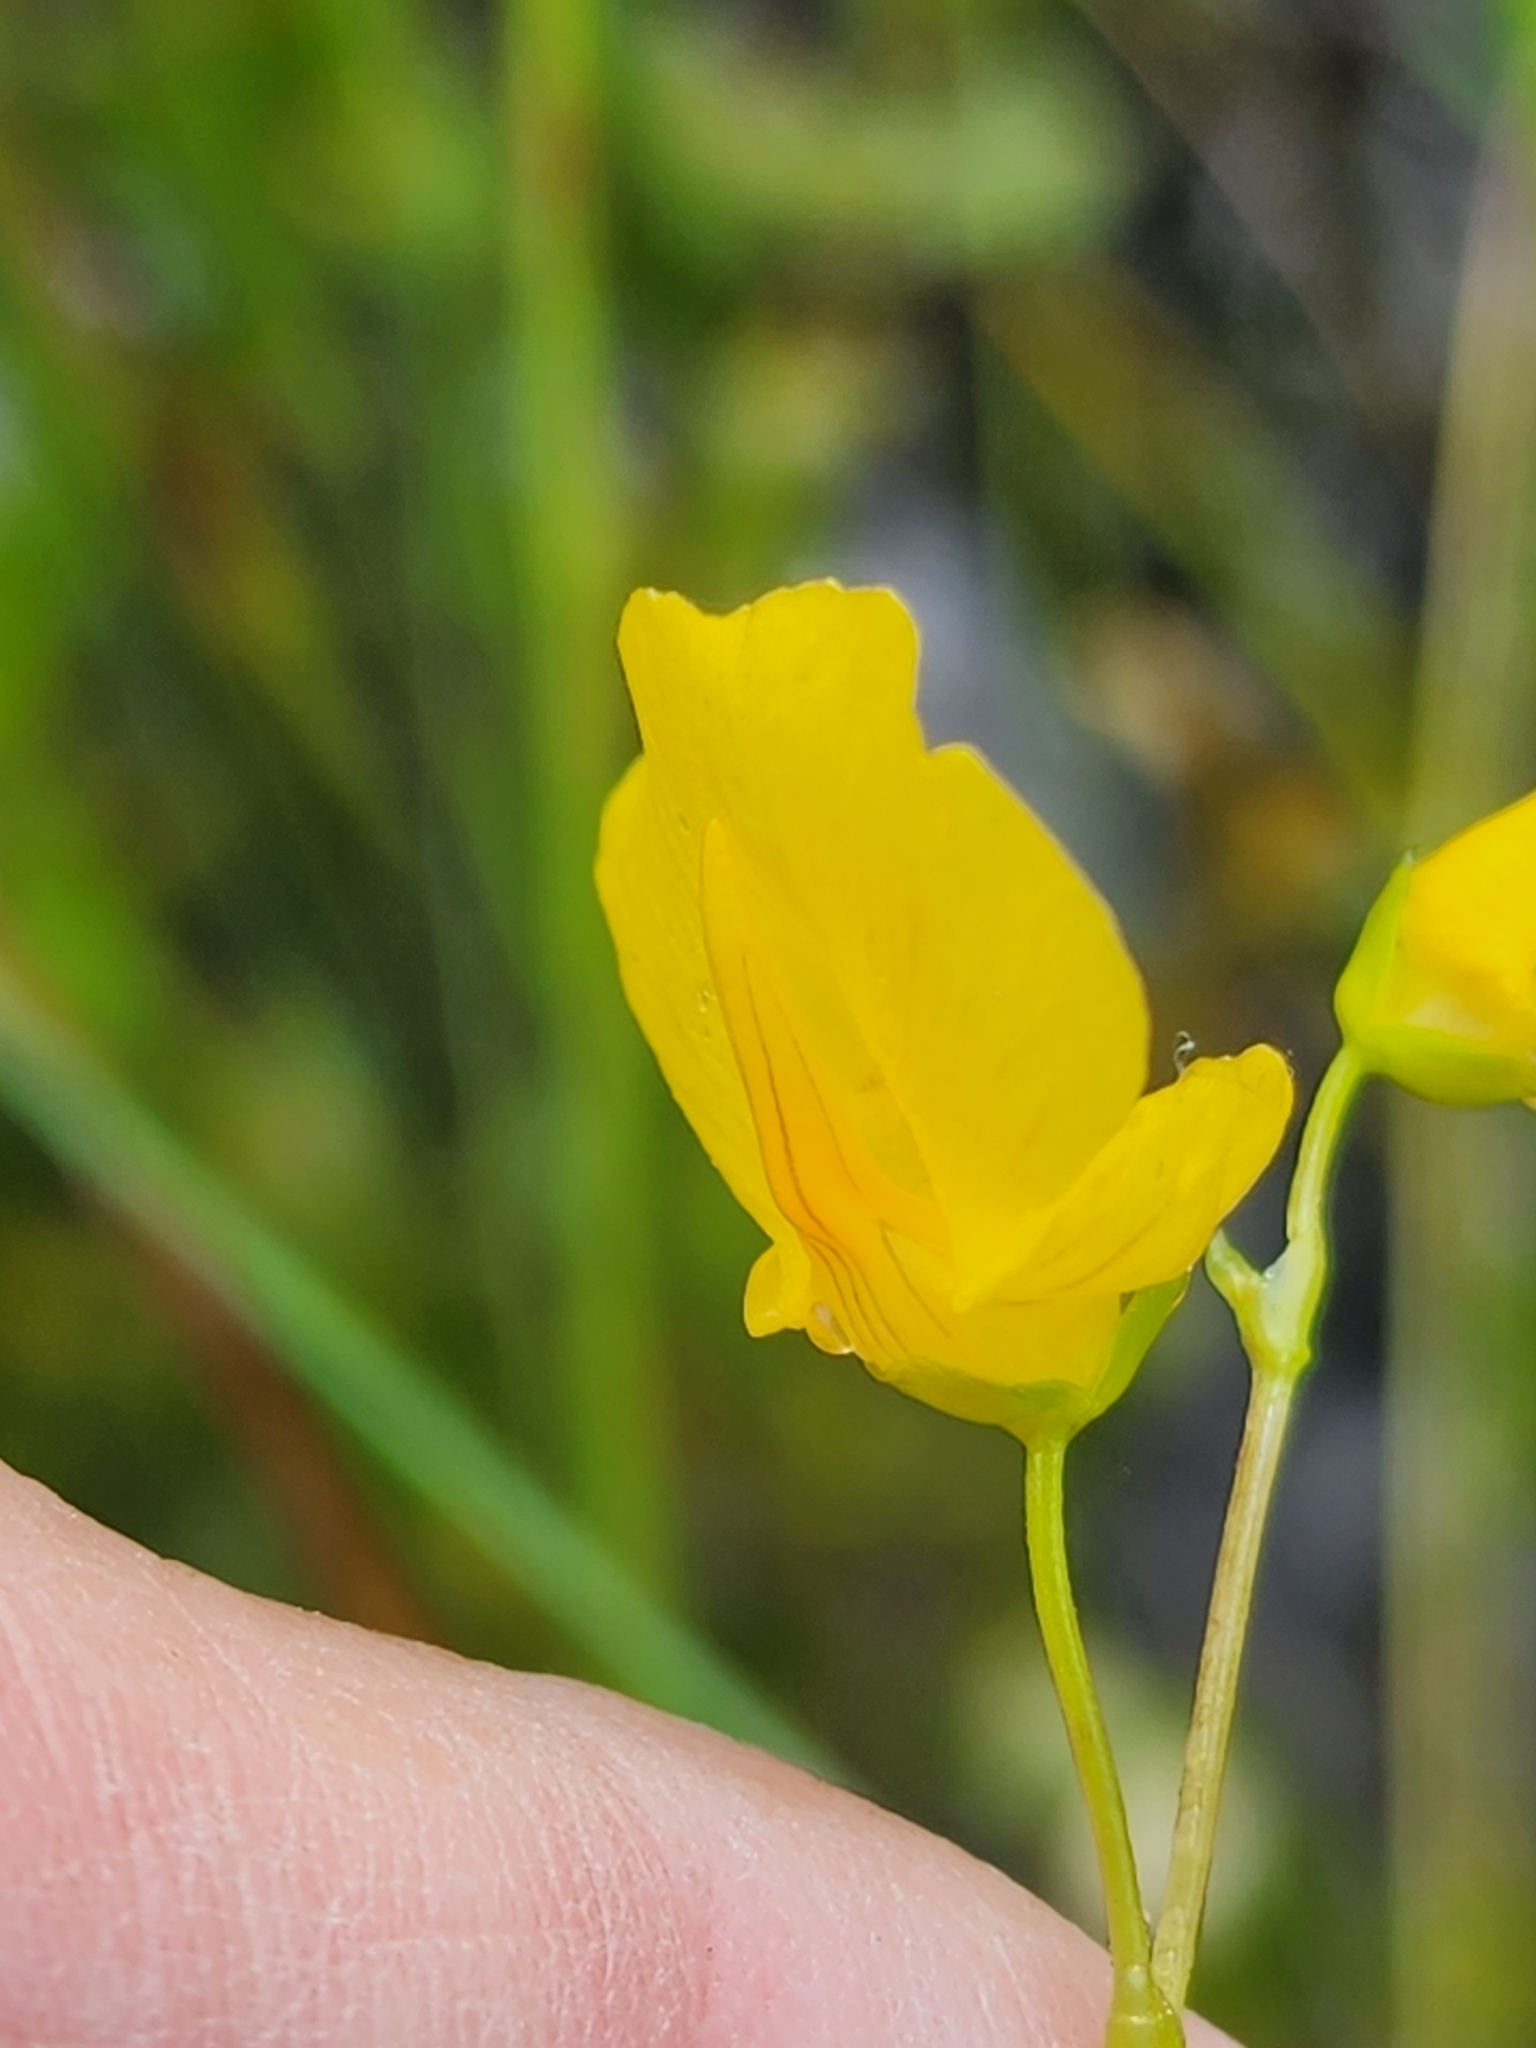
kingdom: Plantae
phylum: Tracheophyta
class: Magnoliopsida
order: Lamiales
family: Lentibulariaceae
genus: Utricularia
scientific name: Utricularia intermedia
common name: Intermediate bladderwort
